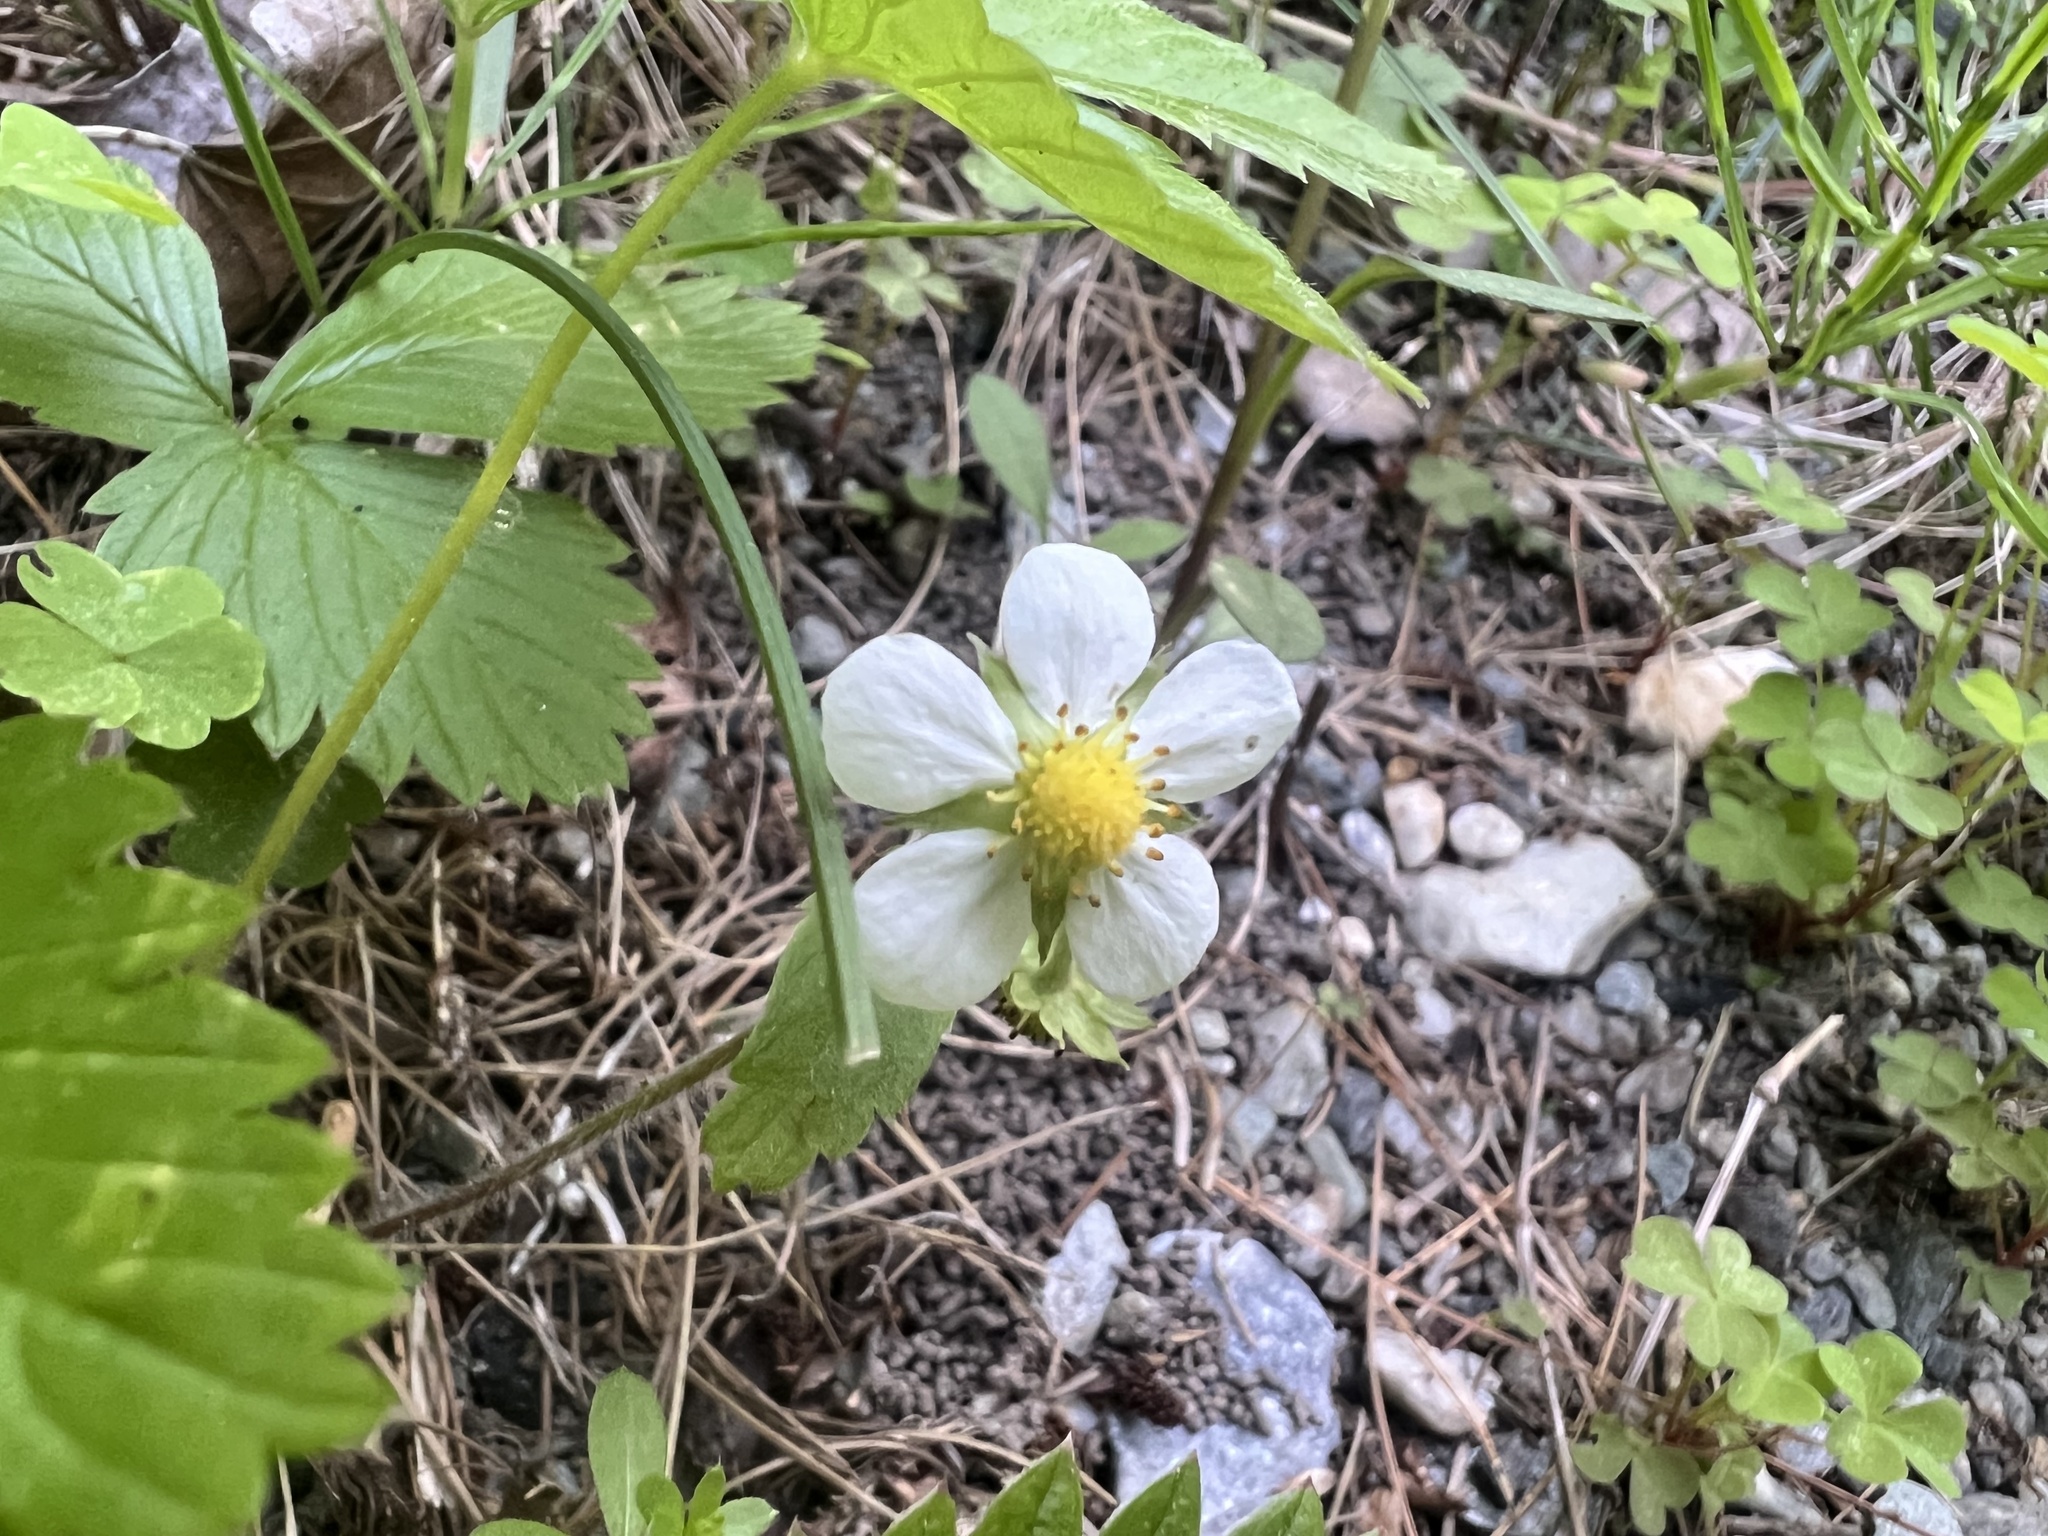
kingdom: Plantae
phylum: Tracheophyta
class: Magnoliopsida
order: Rosales
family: Rosaceae
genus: Fragaria
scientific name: Fragaria vesca
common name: Wild strawberry
